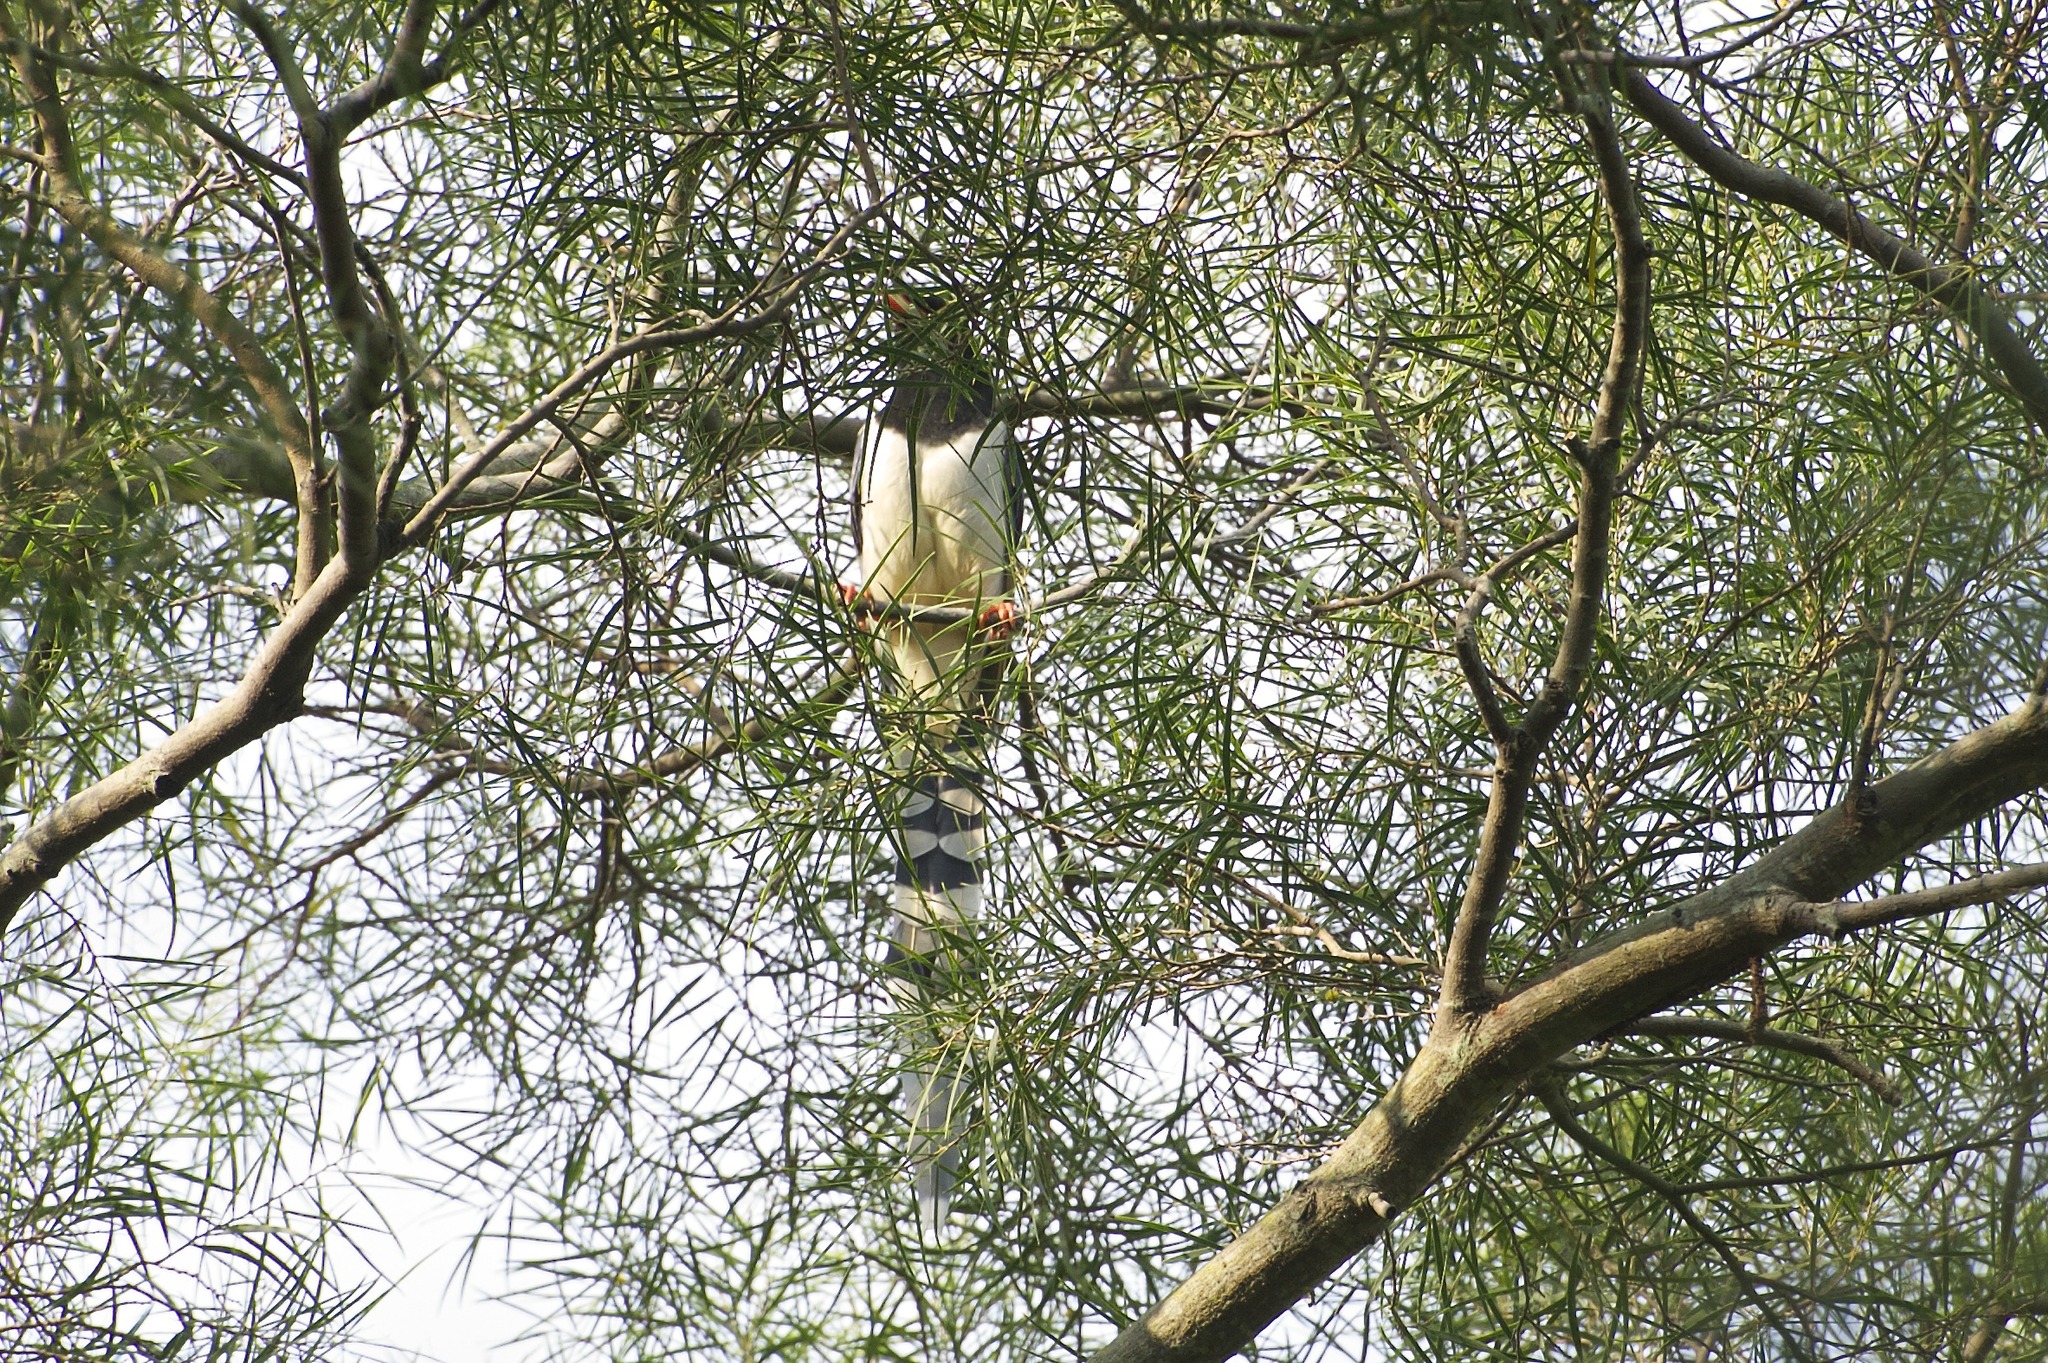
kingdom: Animalia
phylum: Chordata
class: Aves
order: Passeriformes
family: Corvidae
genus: Urocissa
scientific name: Urocissa erythroryncha
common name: Red-billed blue magpie
